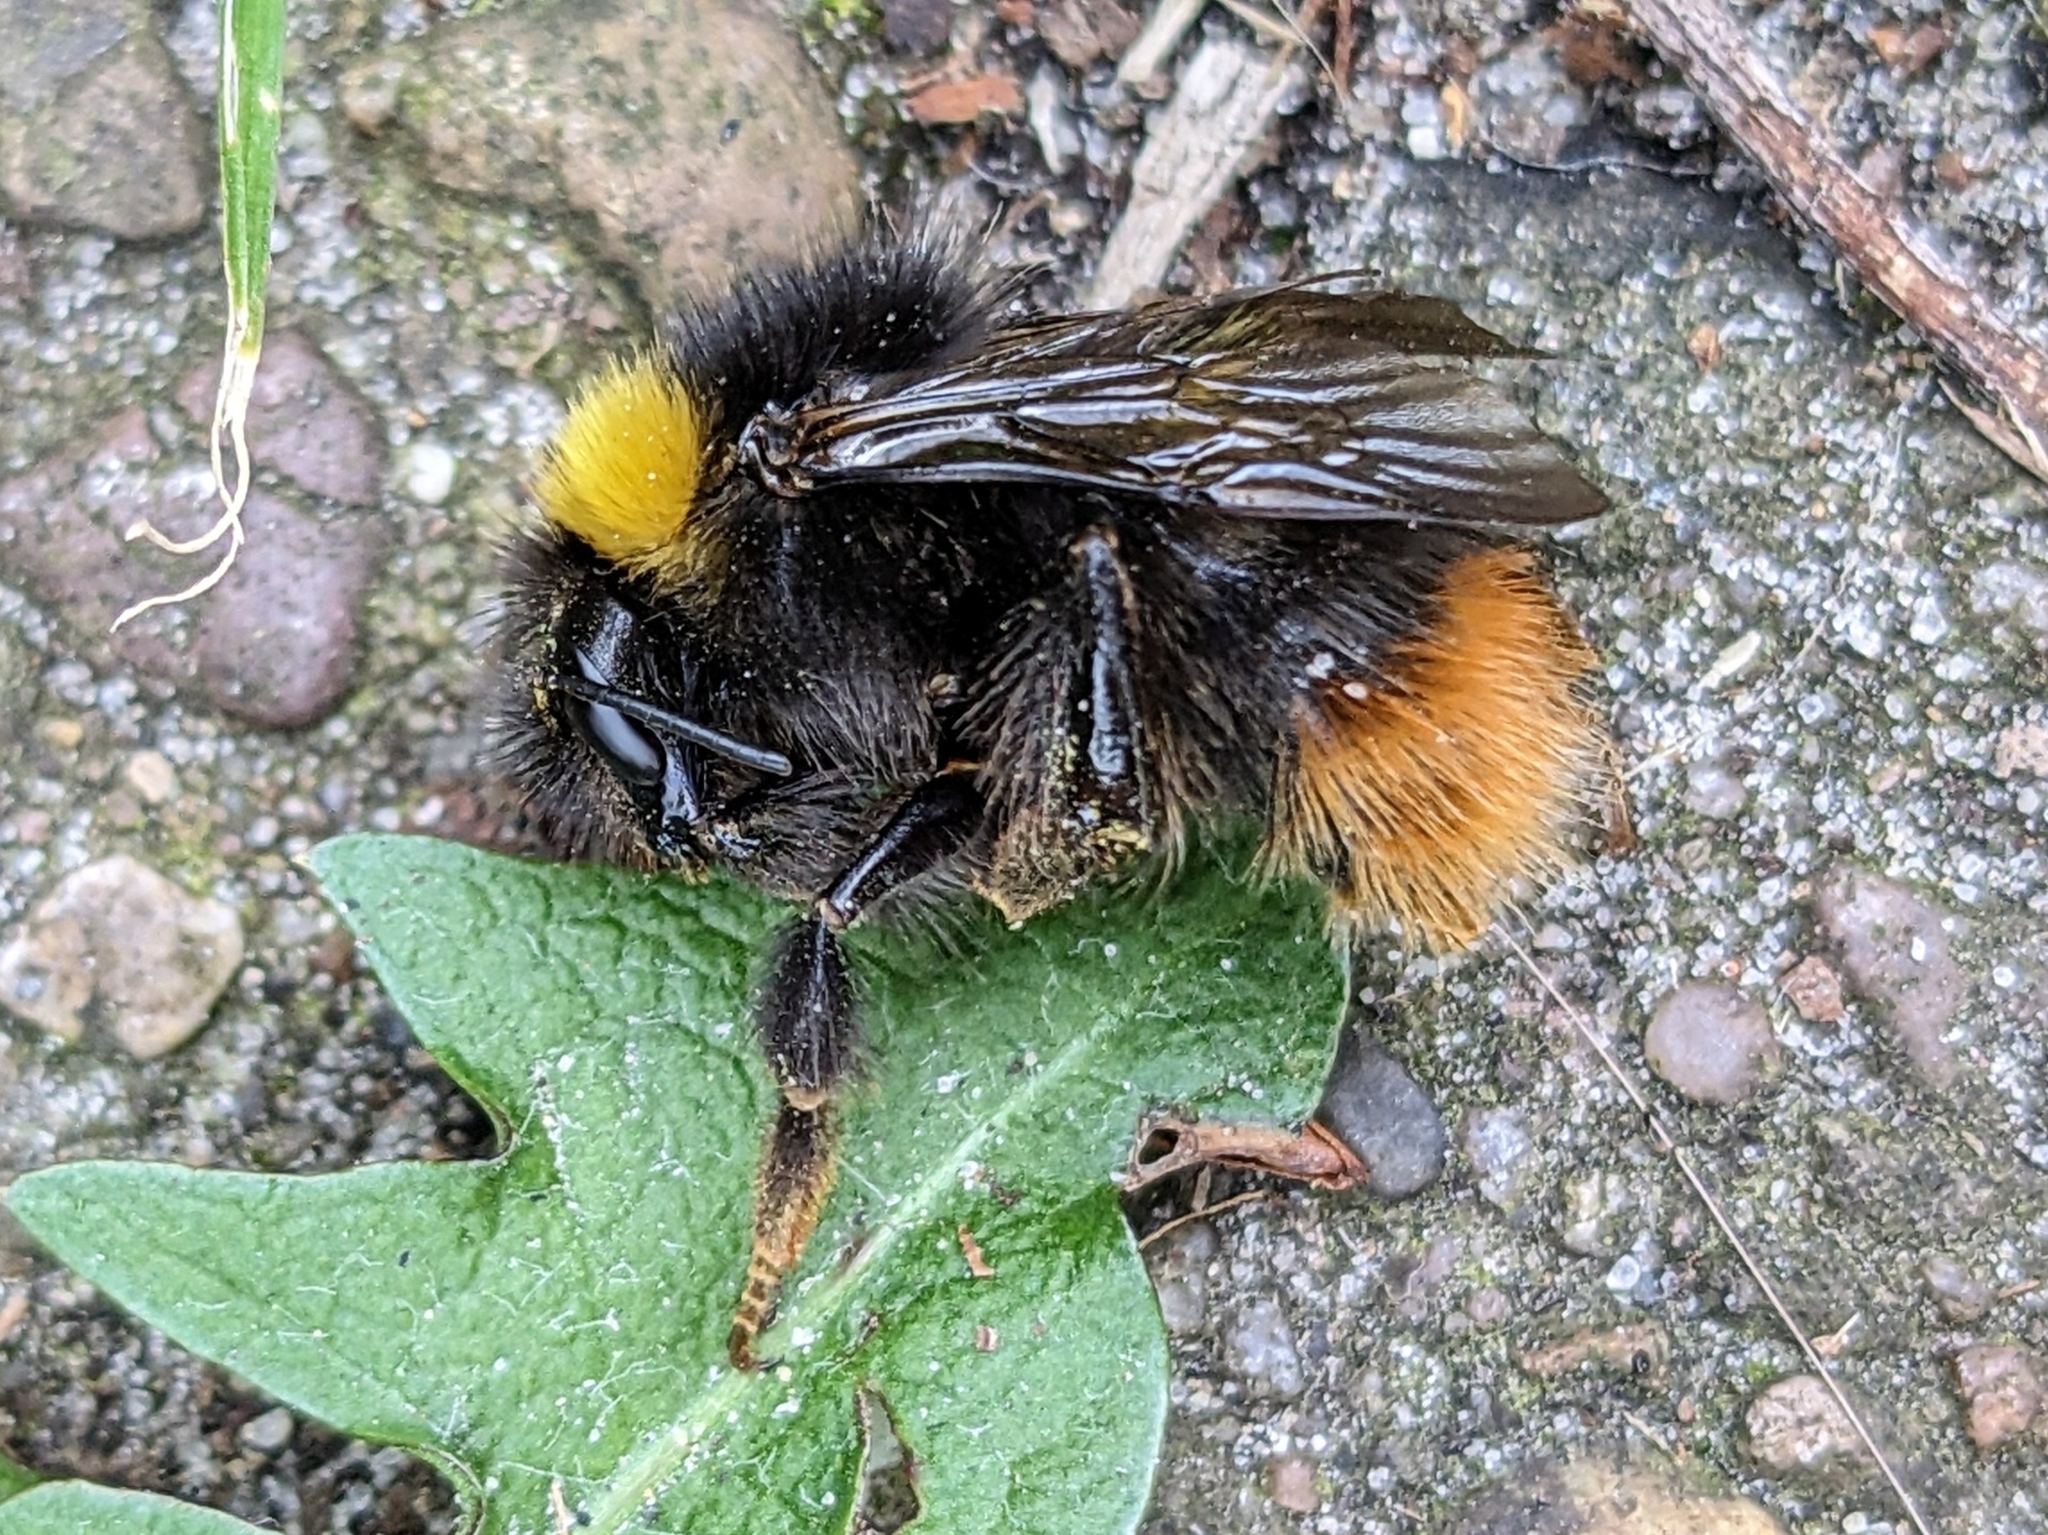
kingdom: Animalia
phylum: Arthropoda
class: Insecta
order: Hymenoptera
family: Apidae
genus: Bombus
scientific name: Bombus pratorum
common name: Early humble-bee
